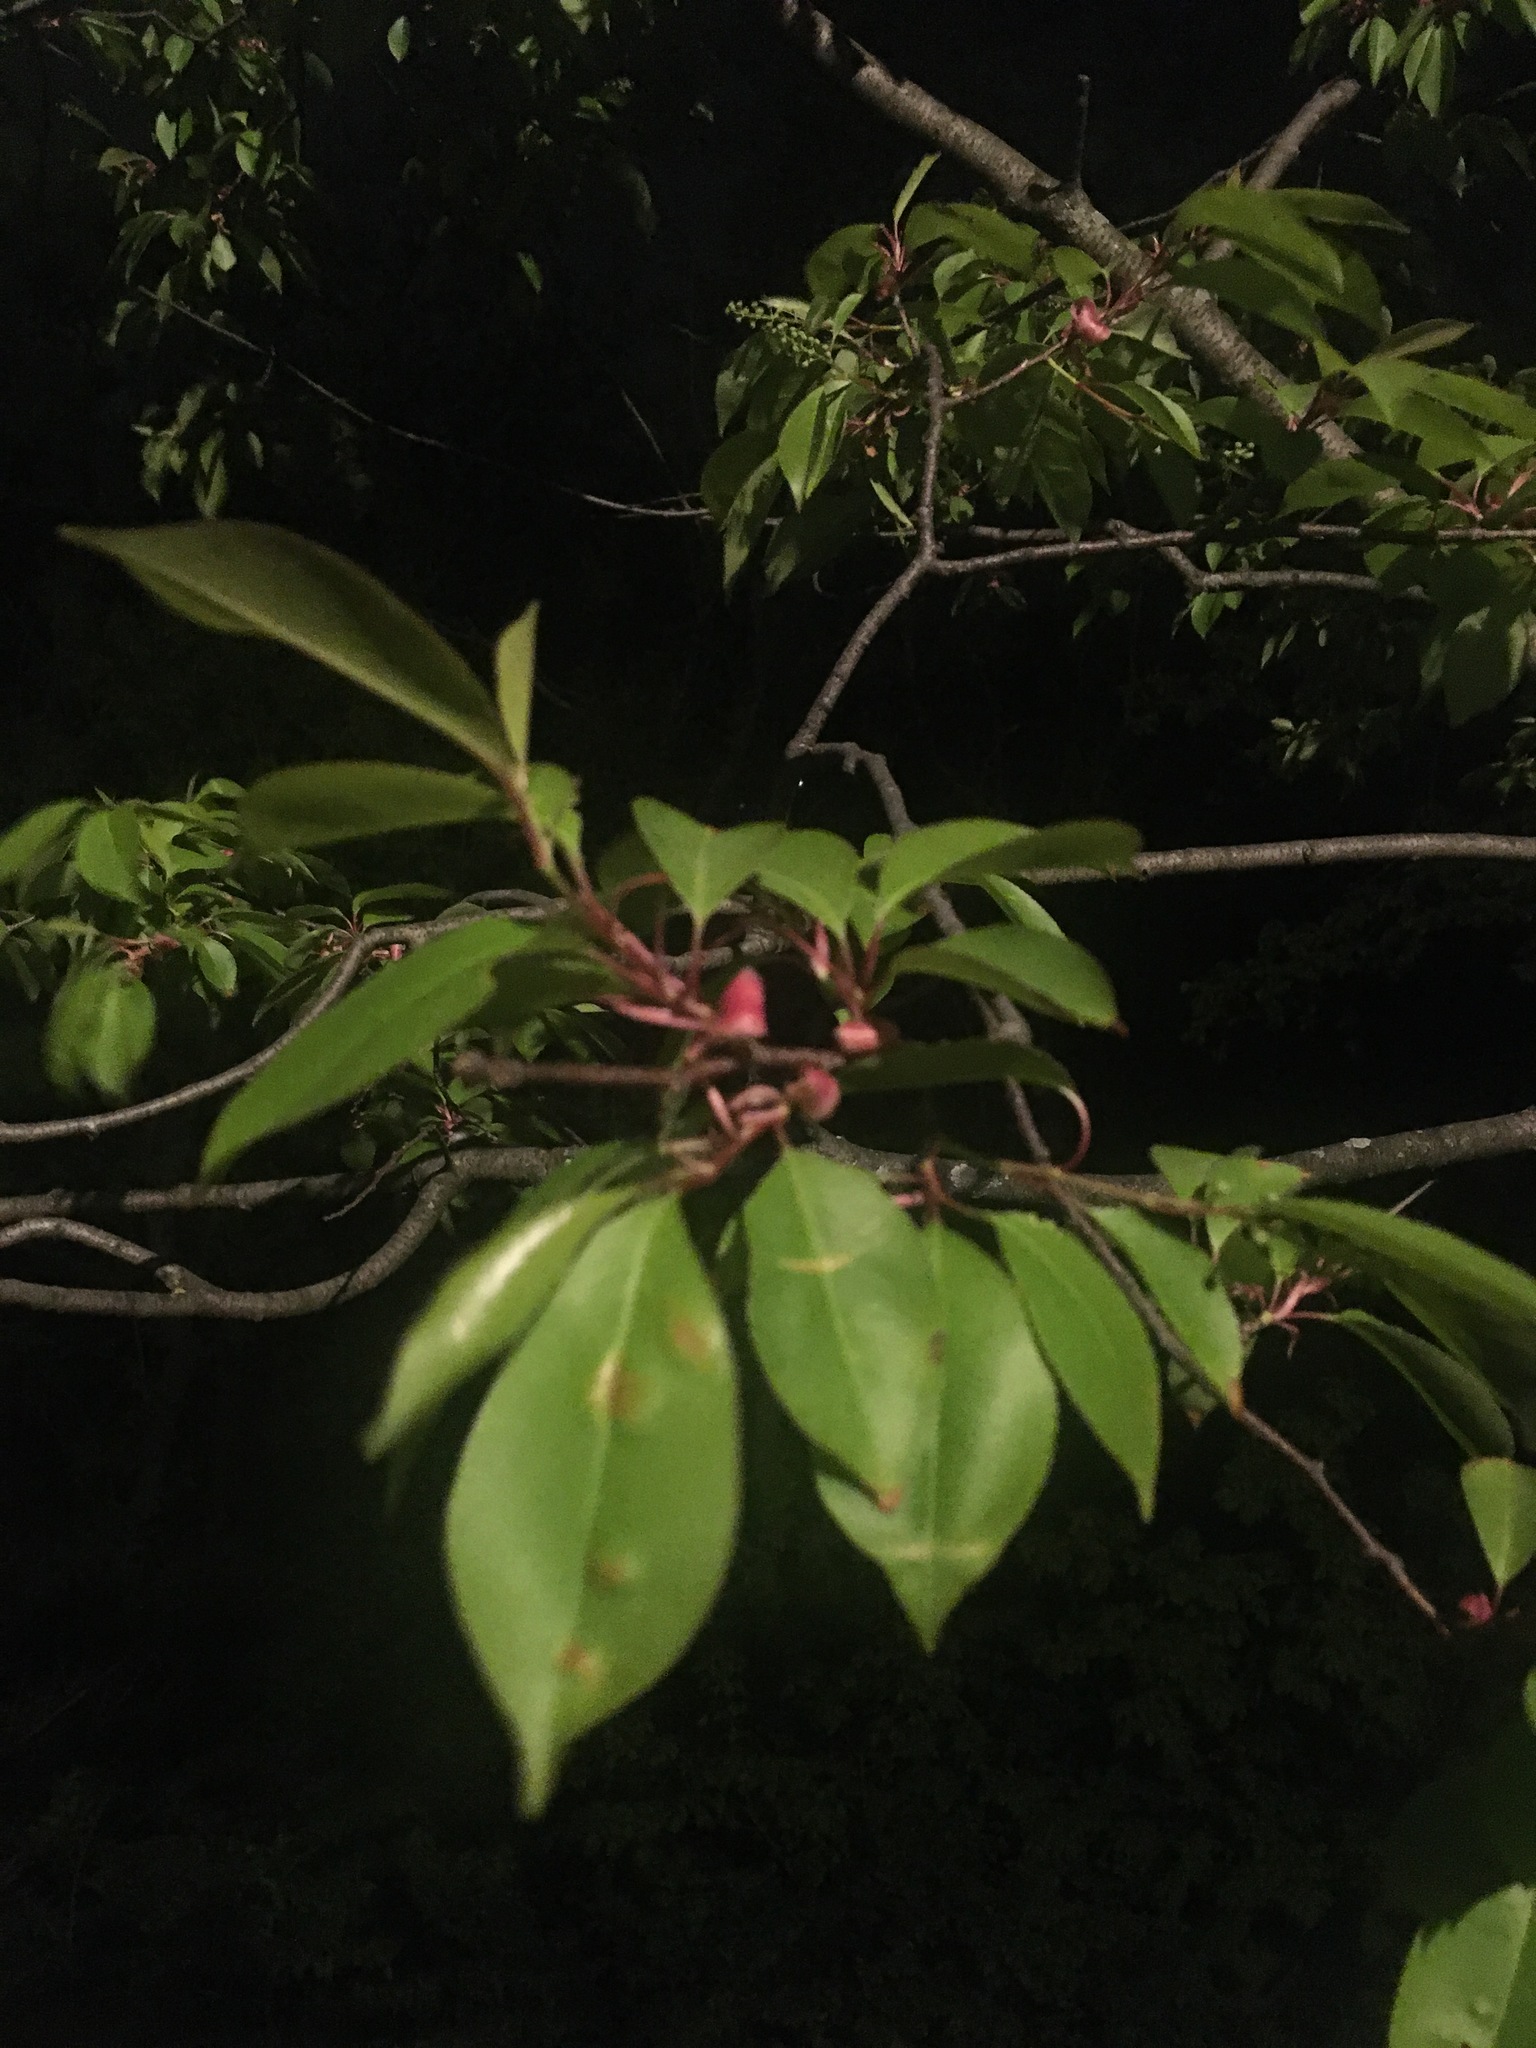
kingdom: Plantae
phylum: Tracheophyta
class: Magnoliopsida
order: Rosales
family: Rosaceae
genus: Prunus
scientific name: Prunus serotina
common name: Black cherry
